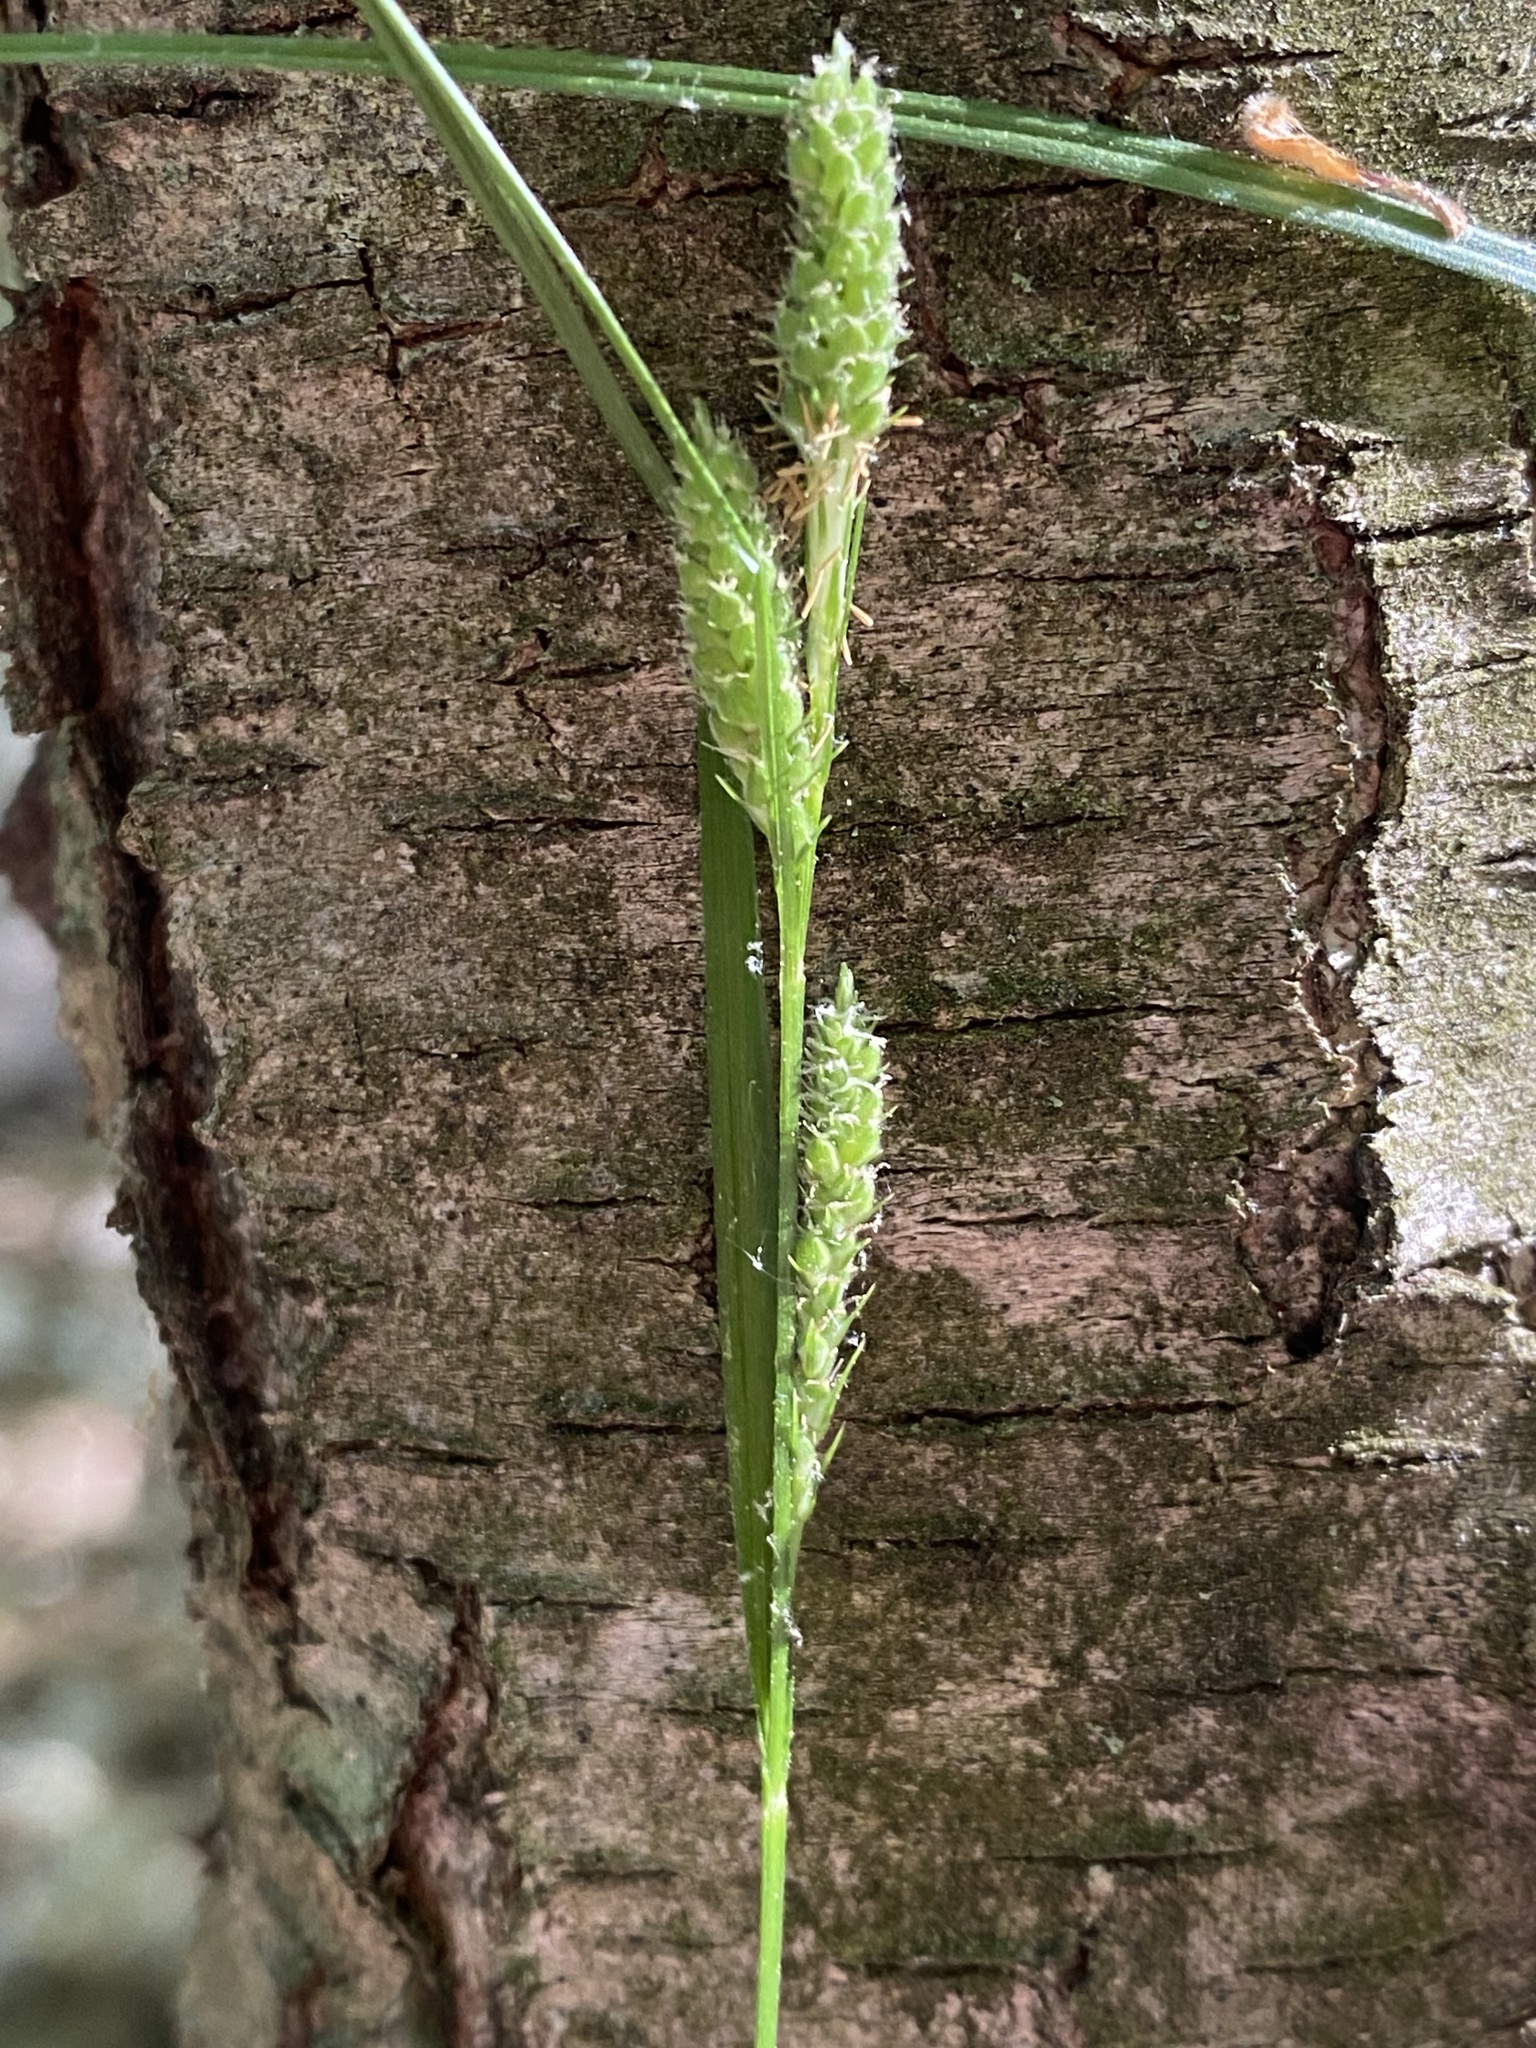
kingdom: Plantae
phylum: Tracheophyta
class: Liliopsida
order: Poales
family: Cyperaceae
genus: Carex
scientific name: Carex swanii
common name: Downy green sedge
